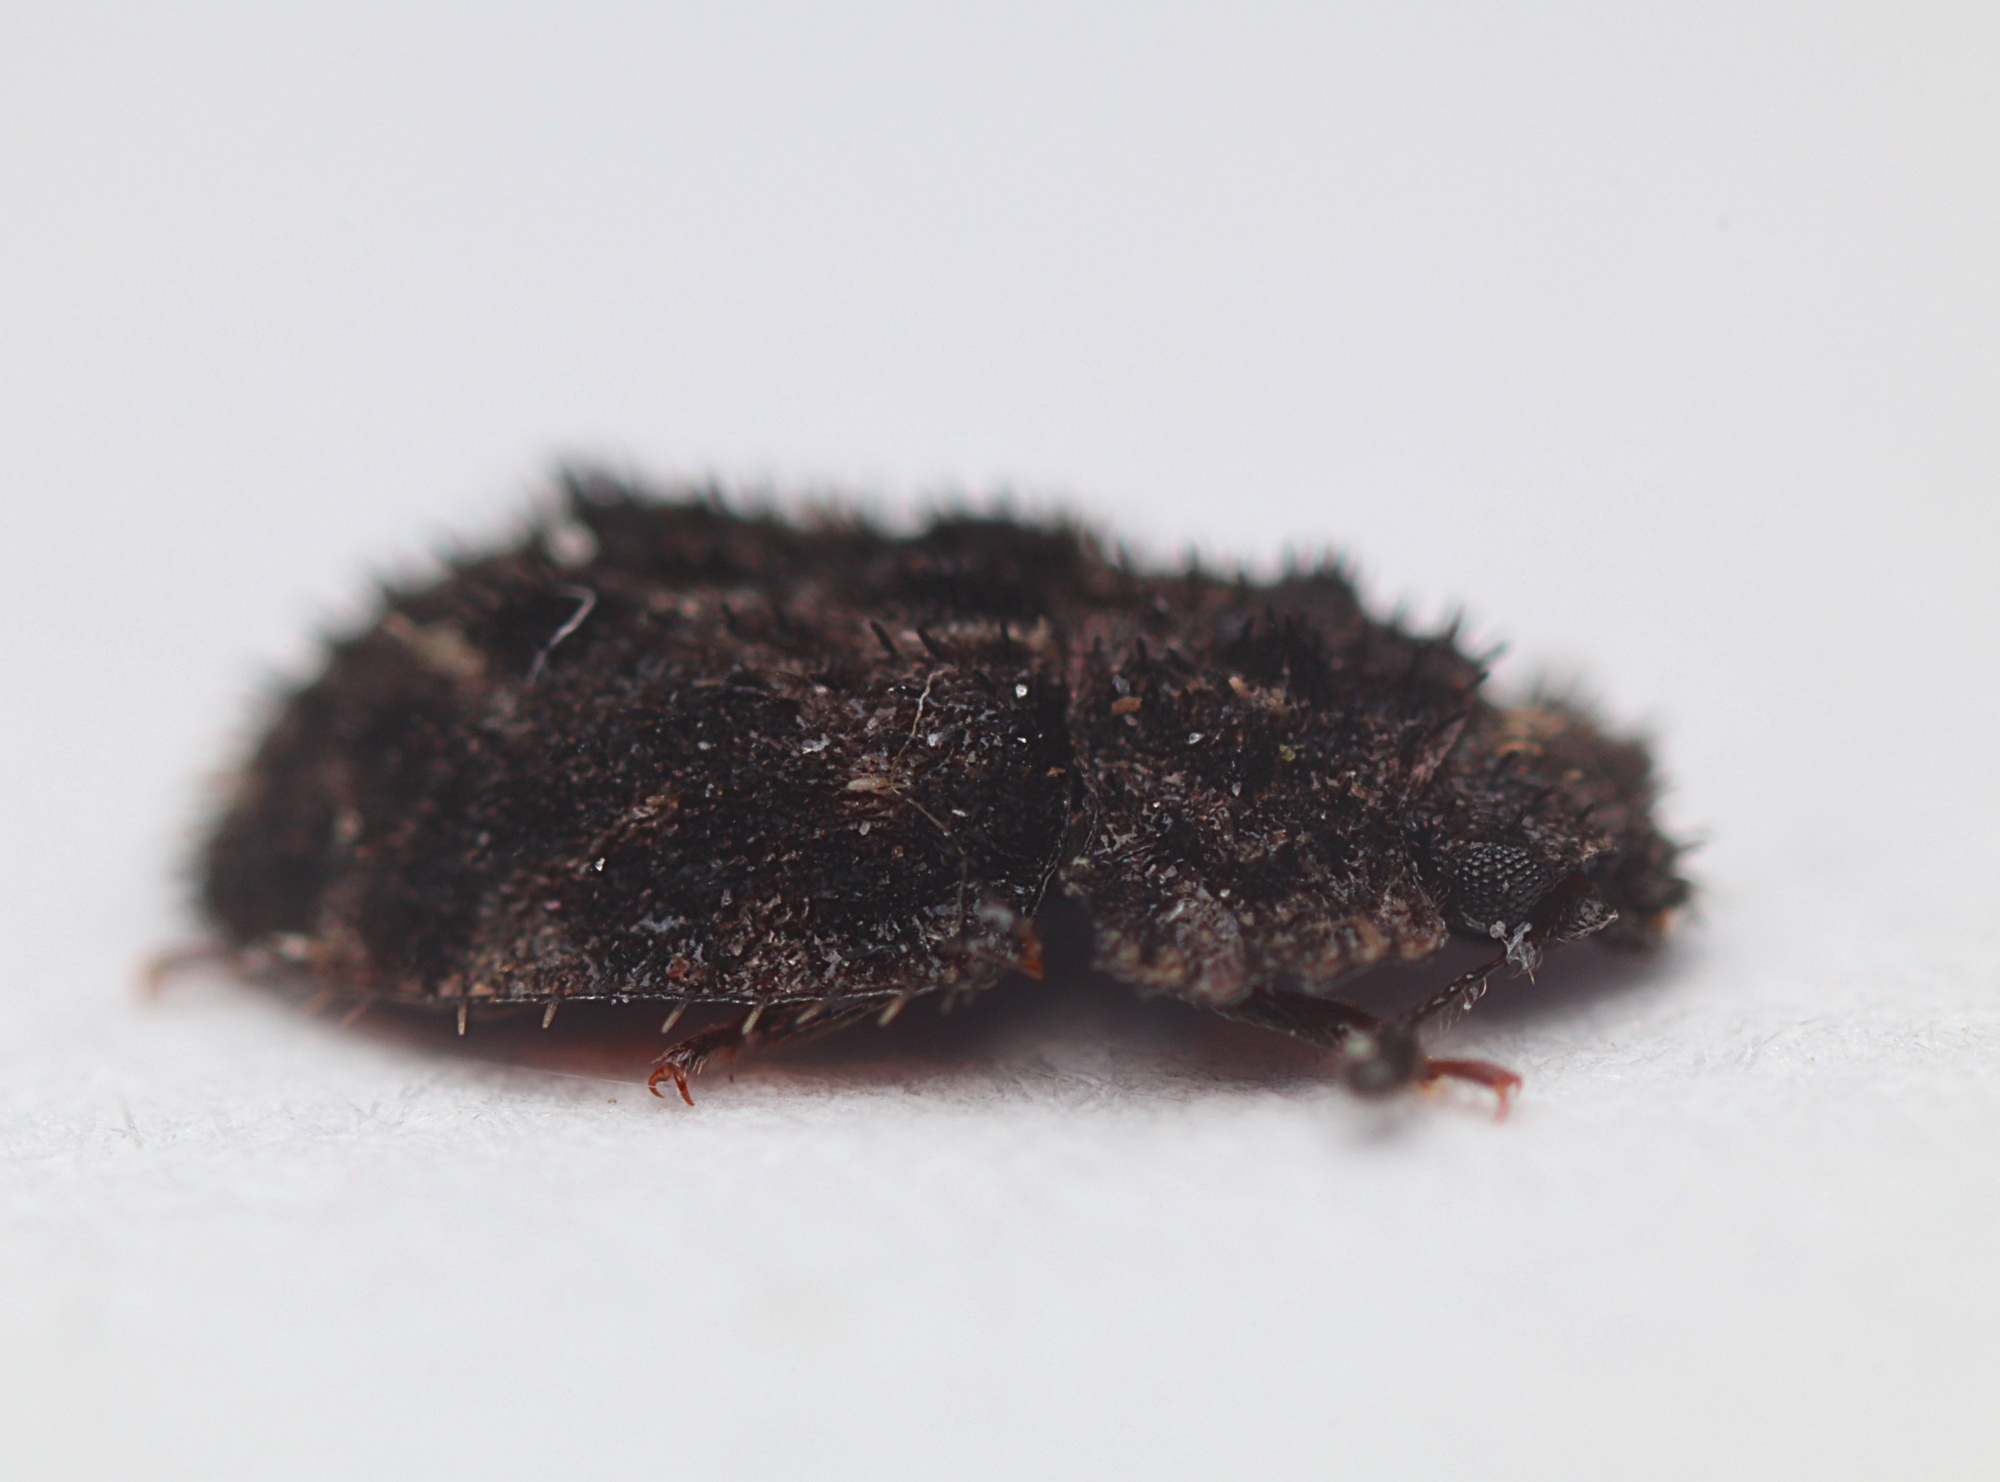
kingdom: Animalia
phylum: Arthropoda
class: Insecta
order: Coleoptera
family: Nitidulidae
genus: Hisparonia
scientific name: Hisparonia
